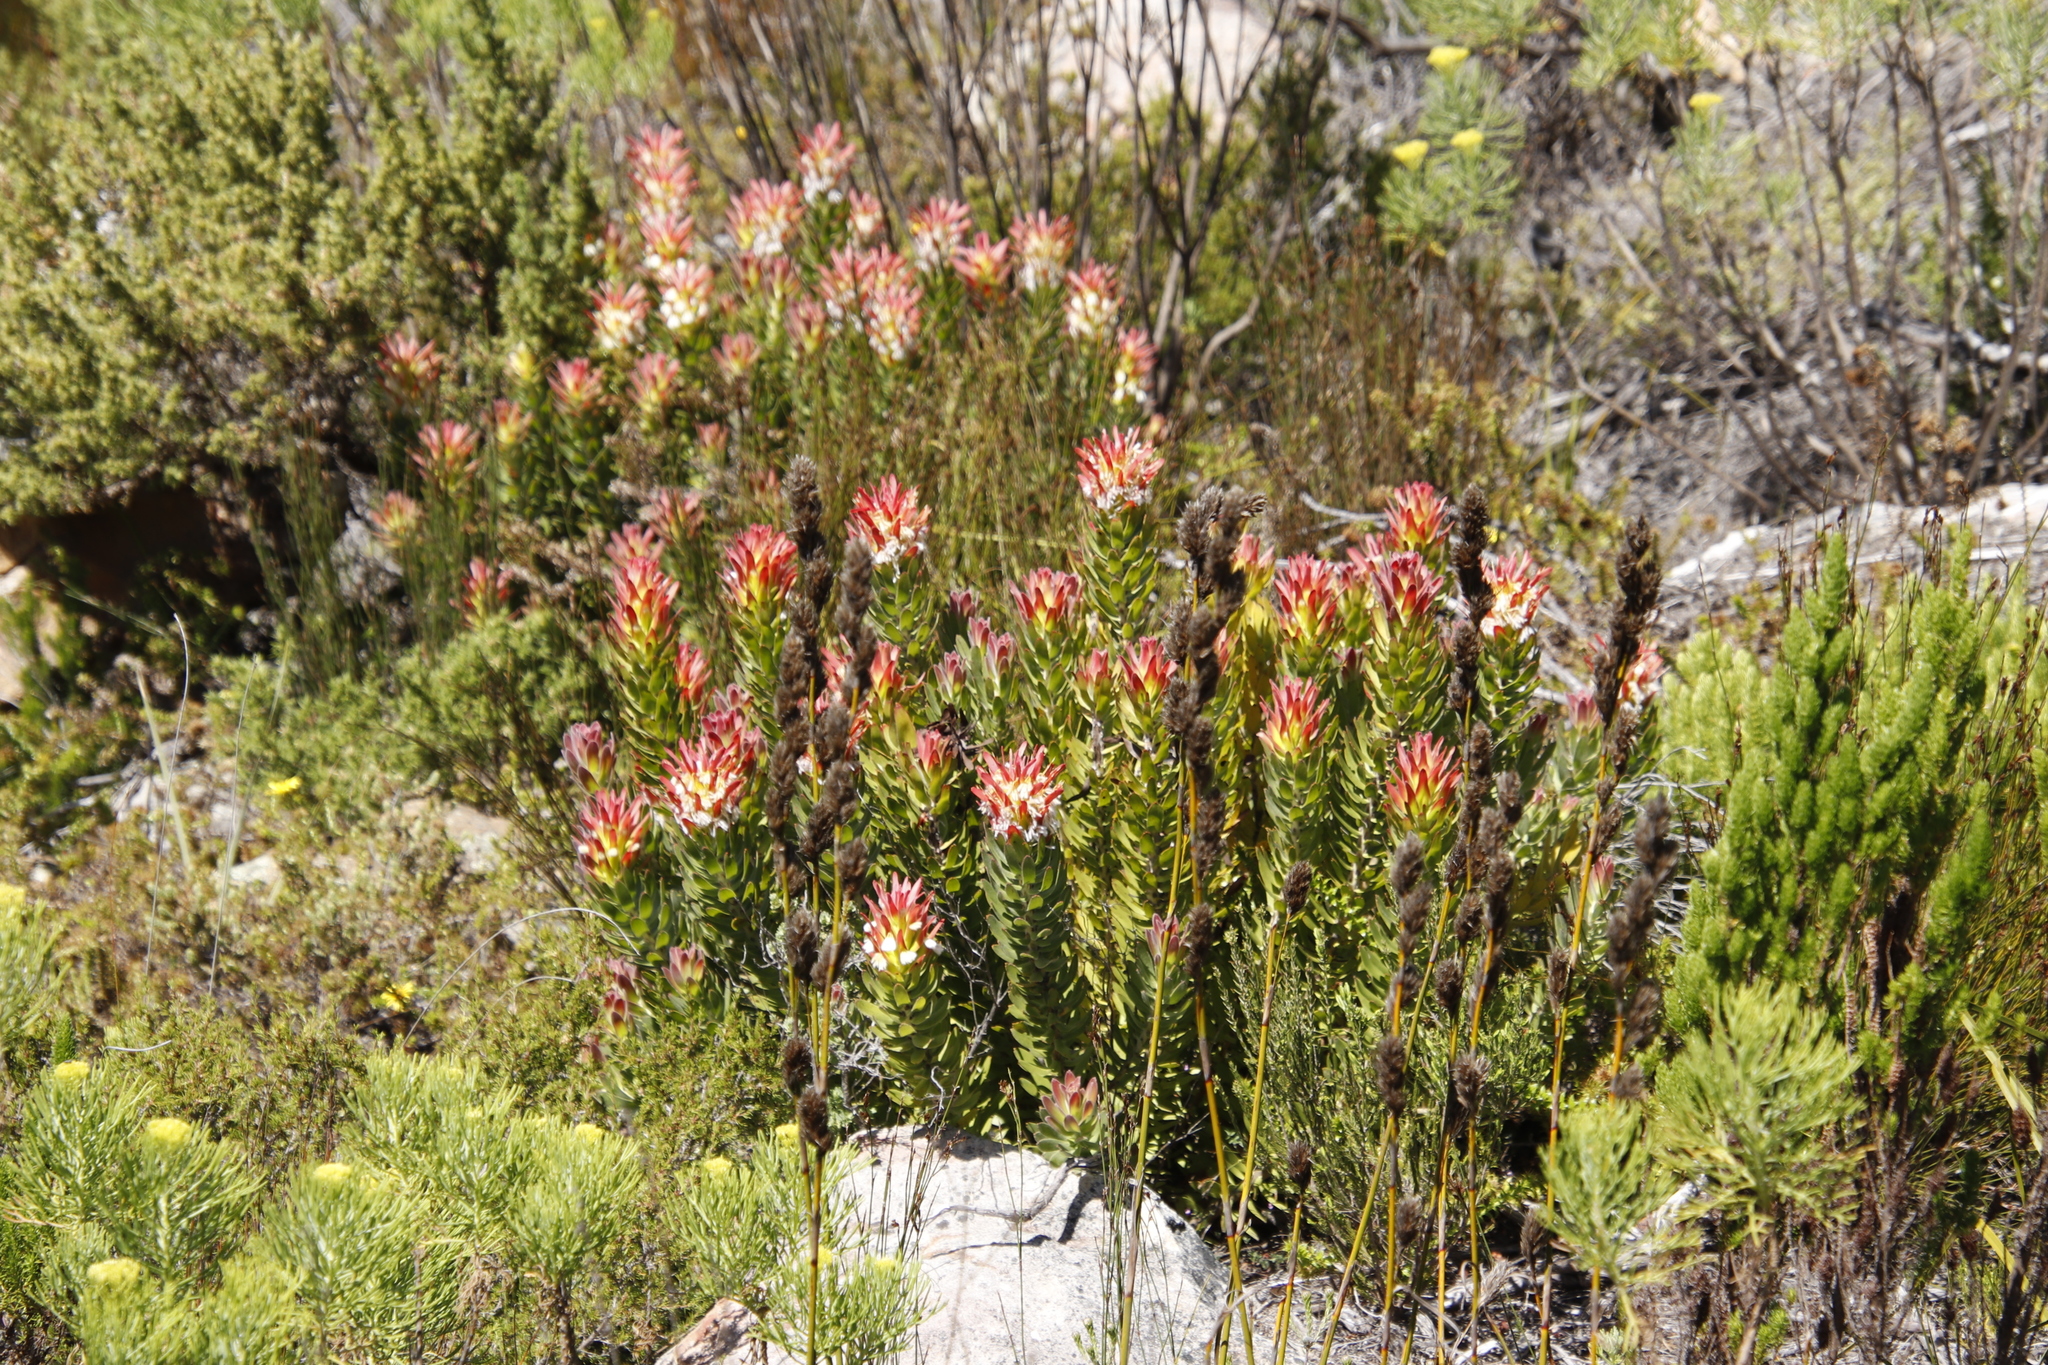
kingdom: Plantae
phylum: Tracheophyta
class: Magnoliopsida
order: Proteales
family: Proteaceae
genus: Mimetes
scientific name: Mimetes cucullatus
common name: Common pagoda
